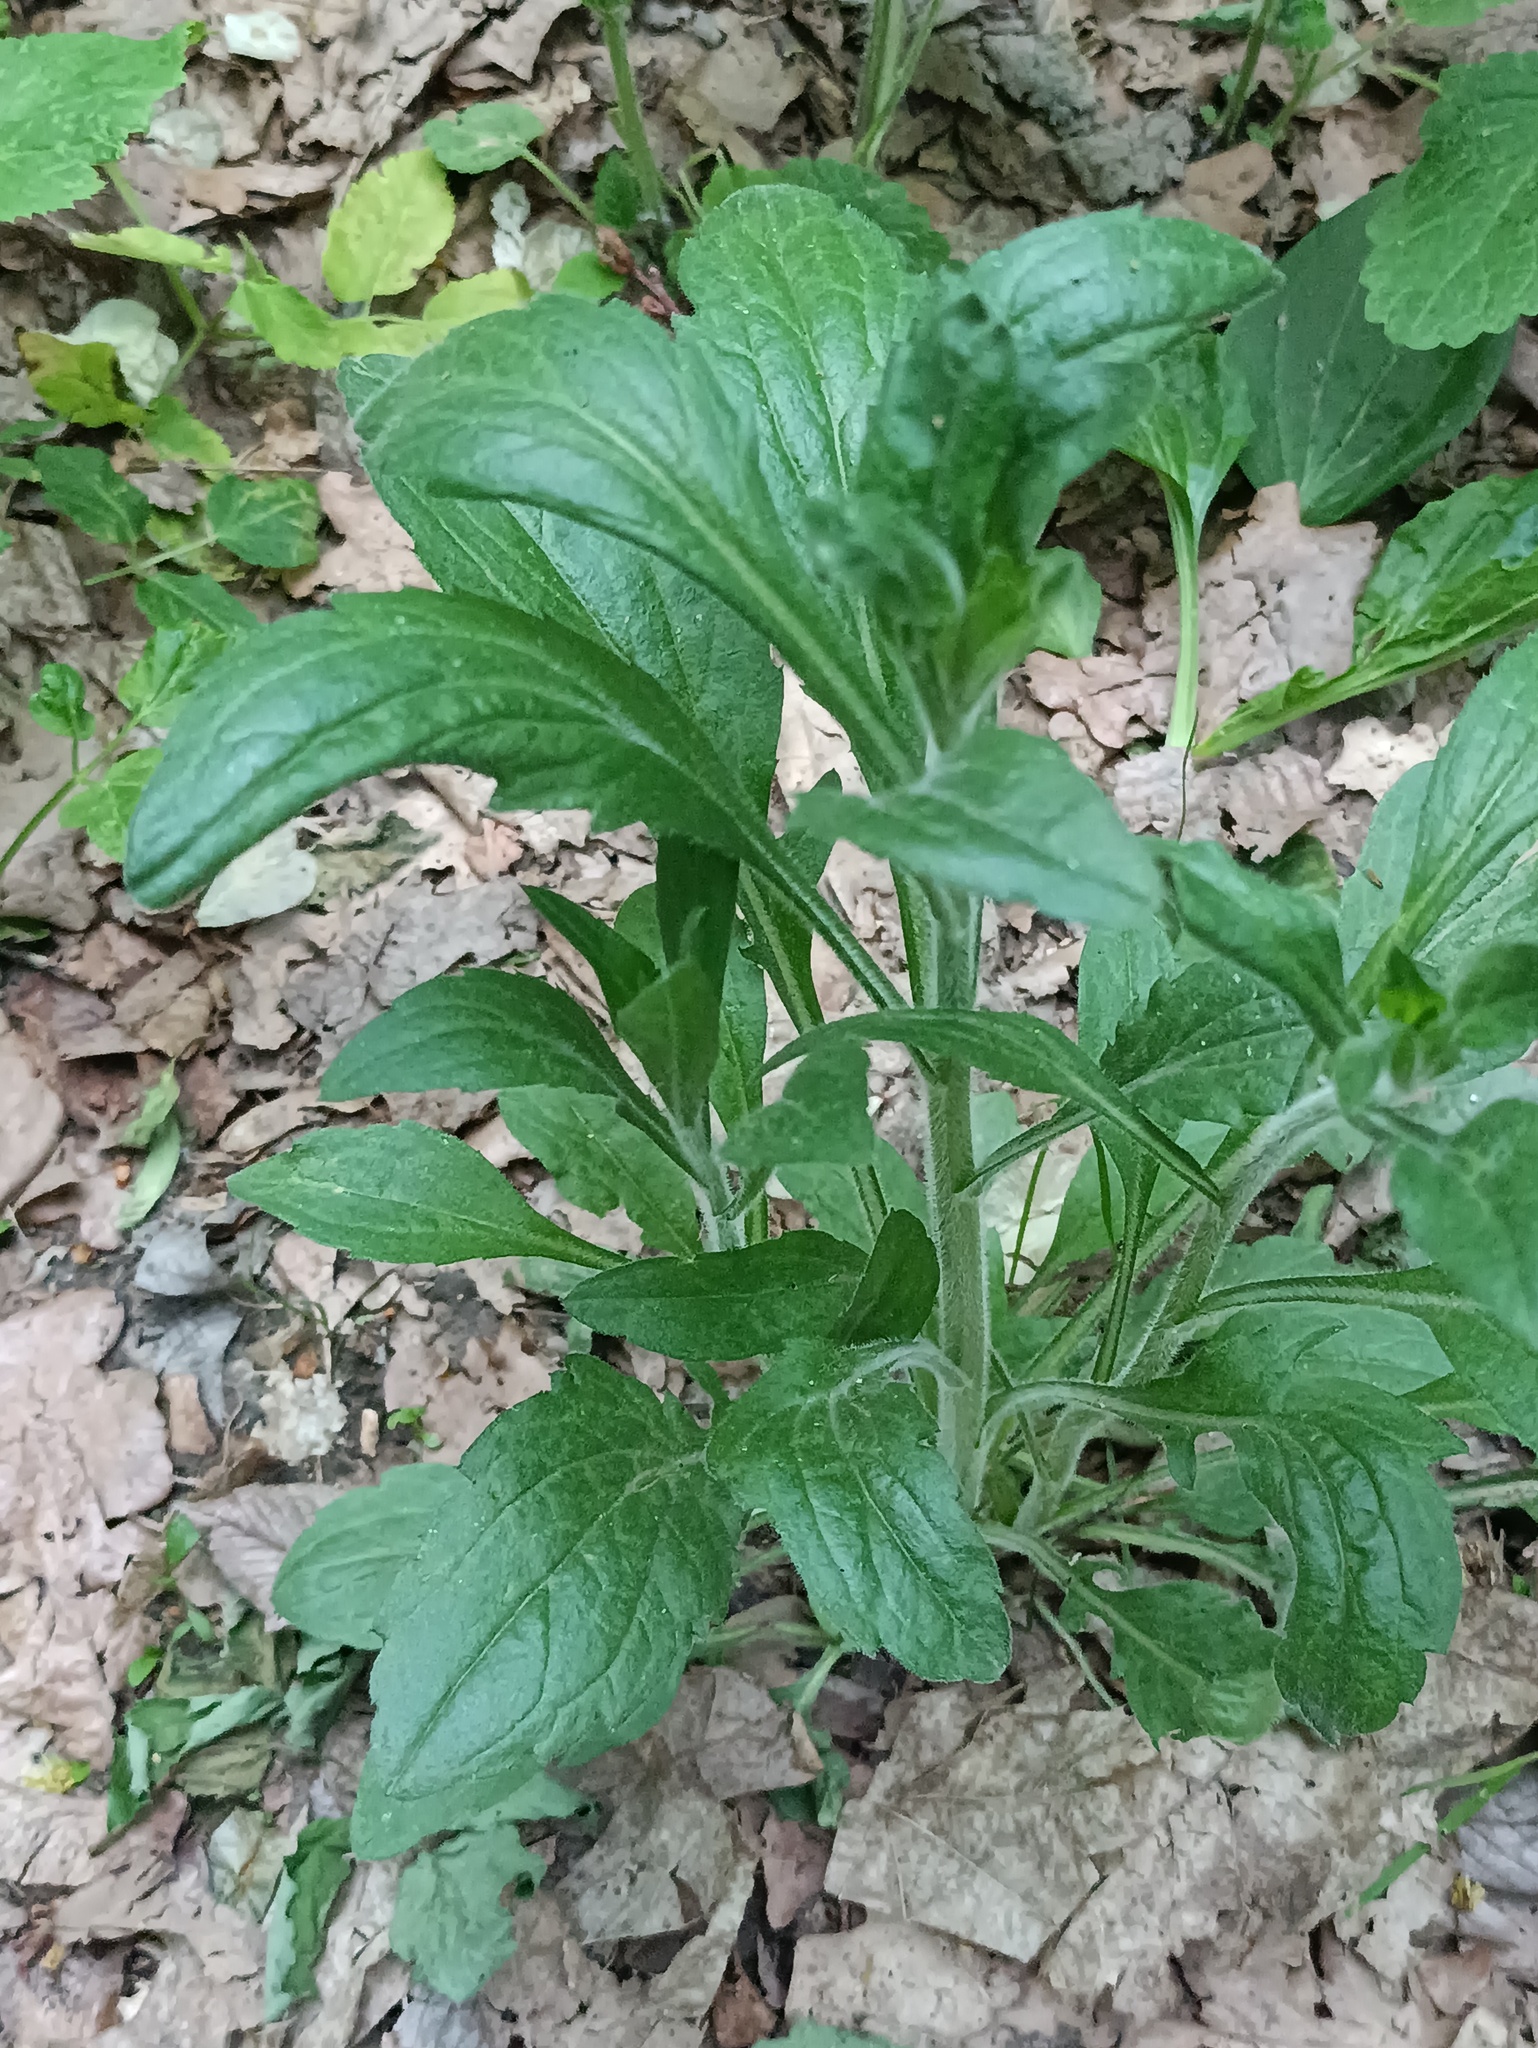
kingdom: Plantae
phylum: Tracheophyta
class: Magnoliopsida
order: Asterales
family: Asteraceae
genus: Erigeron
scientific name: Erigeron annuus
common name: Tall fleabane
